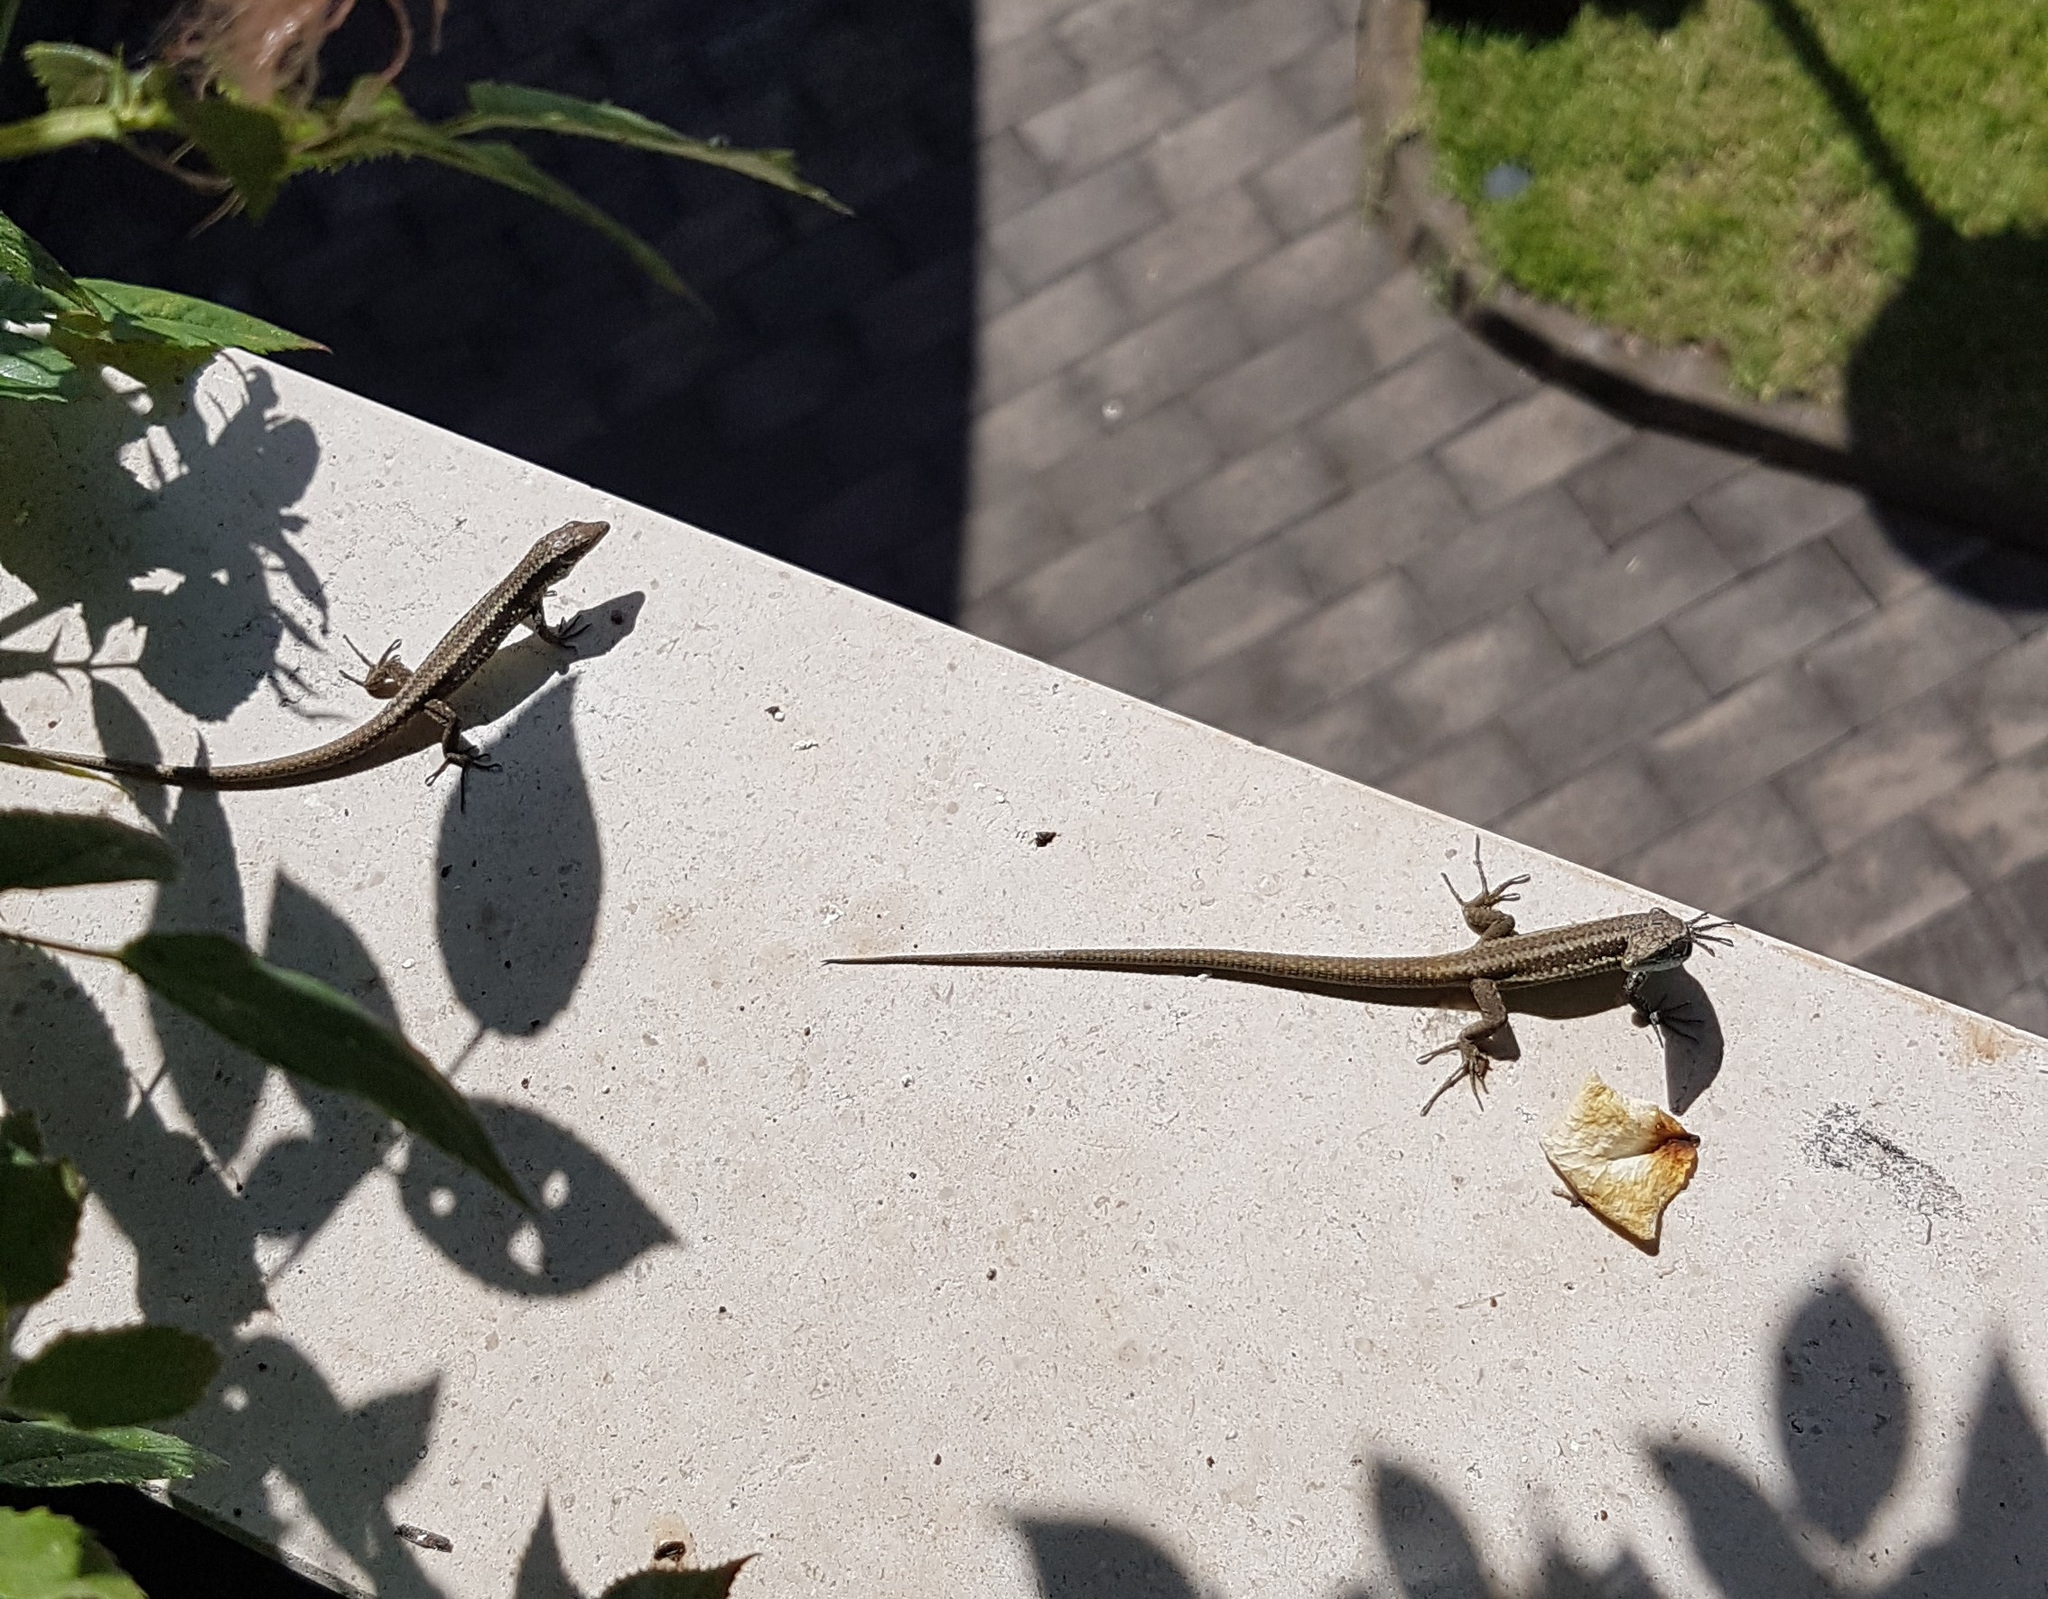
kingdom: Animalia
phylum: Chordata
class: Squamata
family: Lacertidae
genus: Teira
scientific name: Teira dugesii
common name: Madeira lizard
